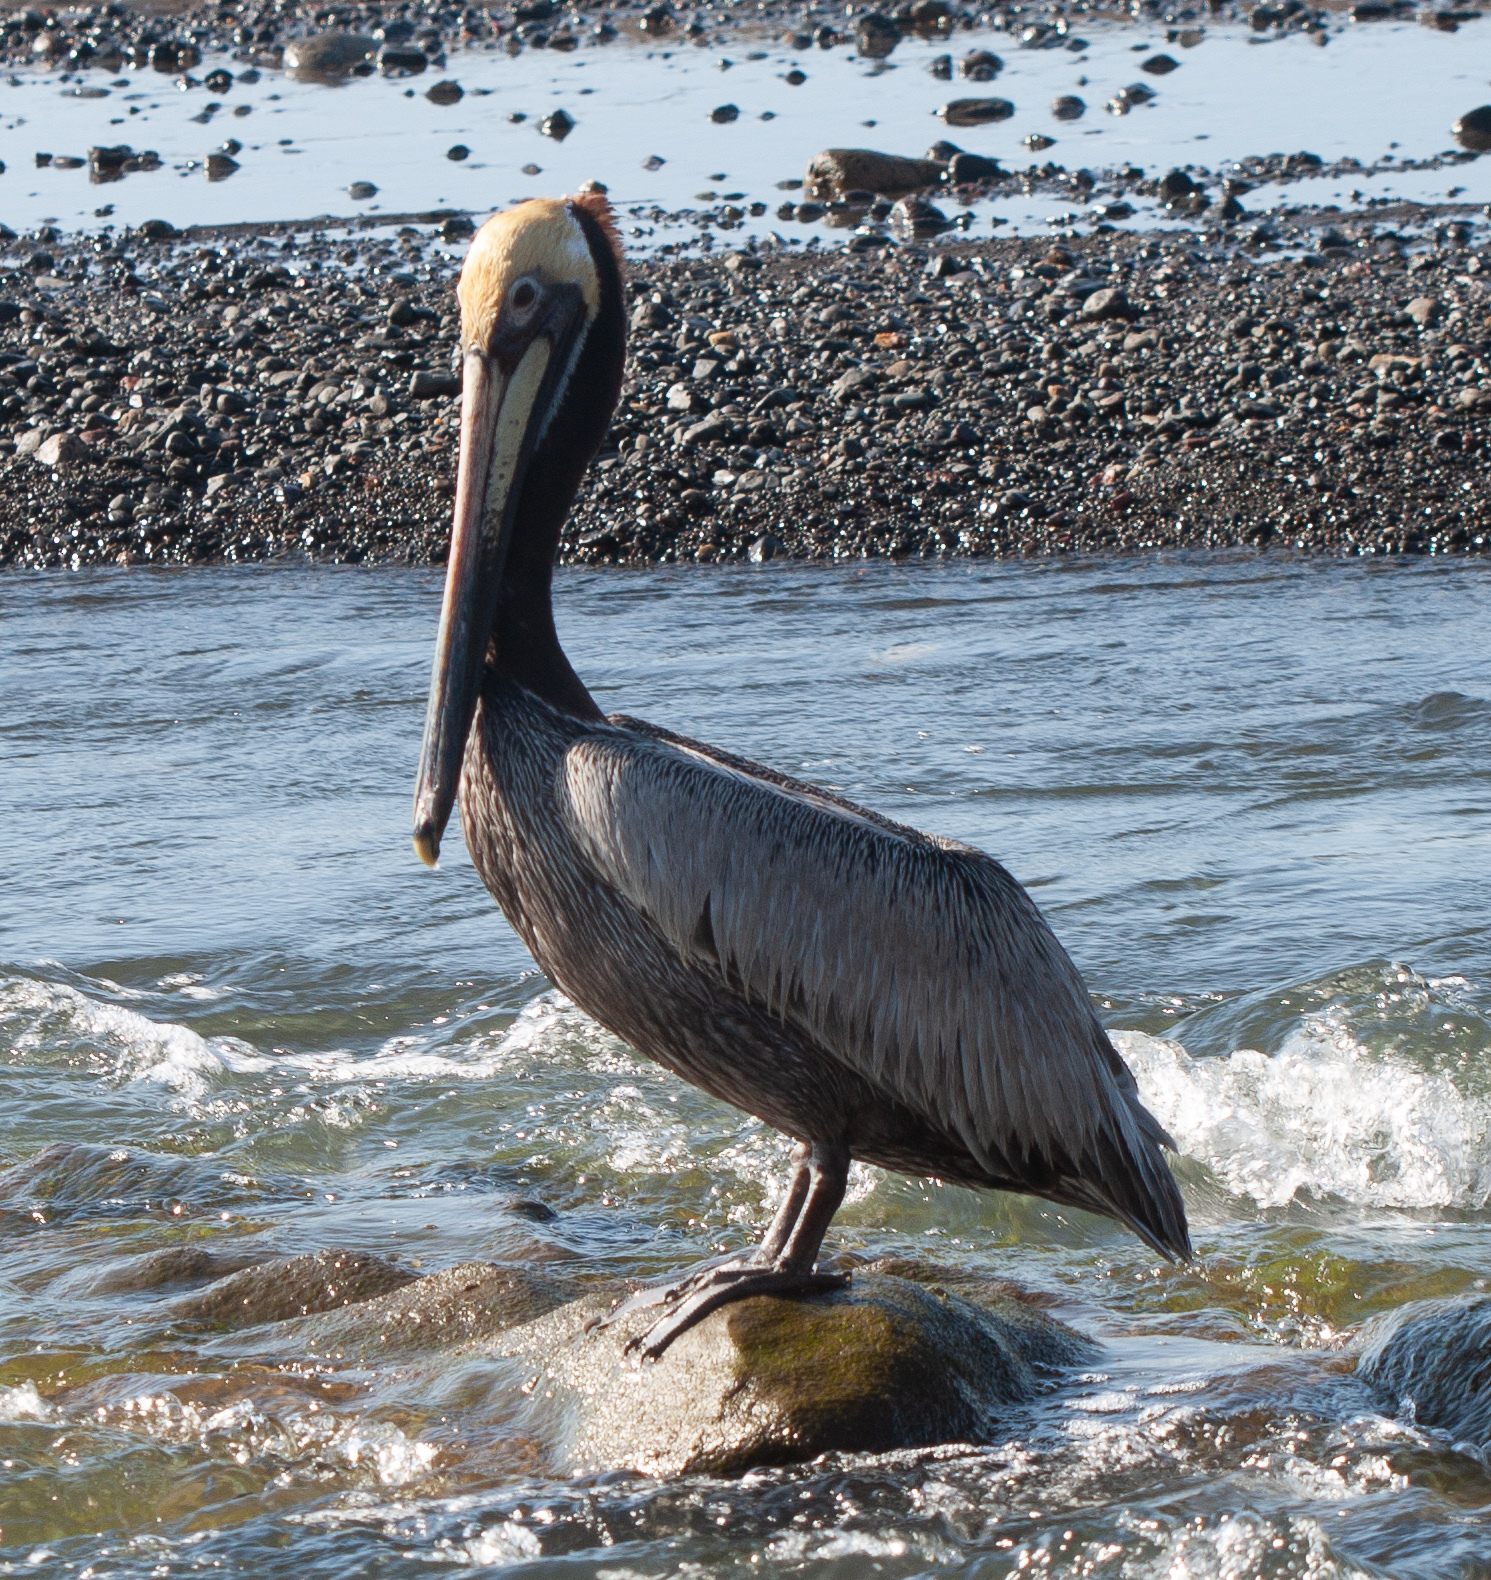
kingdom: Animalia
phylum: Chordata
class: Aves
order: Pelecaniformes
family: Pelecanidae
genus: Pelecanus
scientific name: Pelecanus occidentalis
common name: Brown pelican
